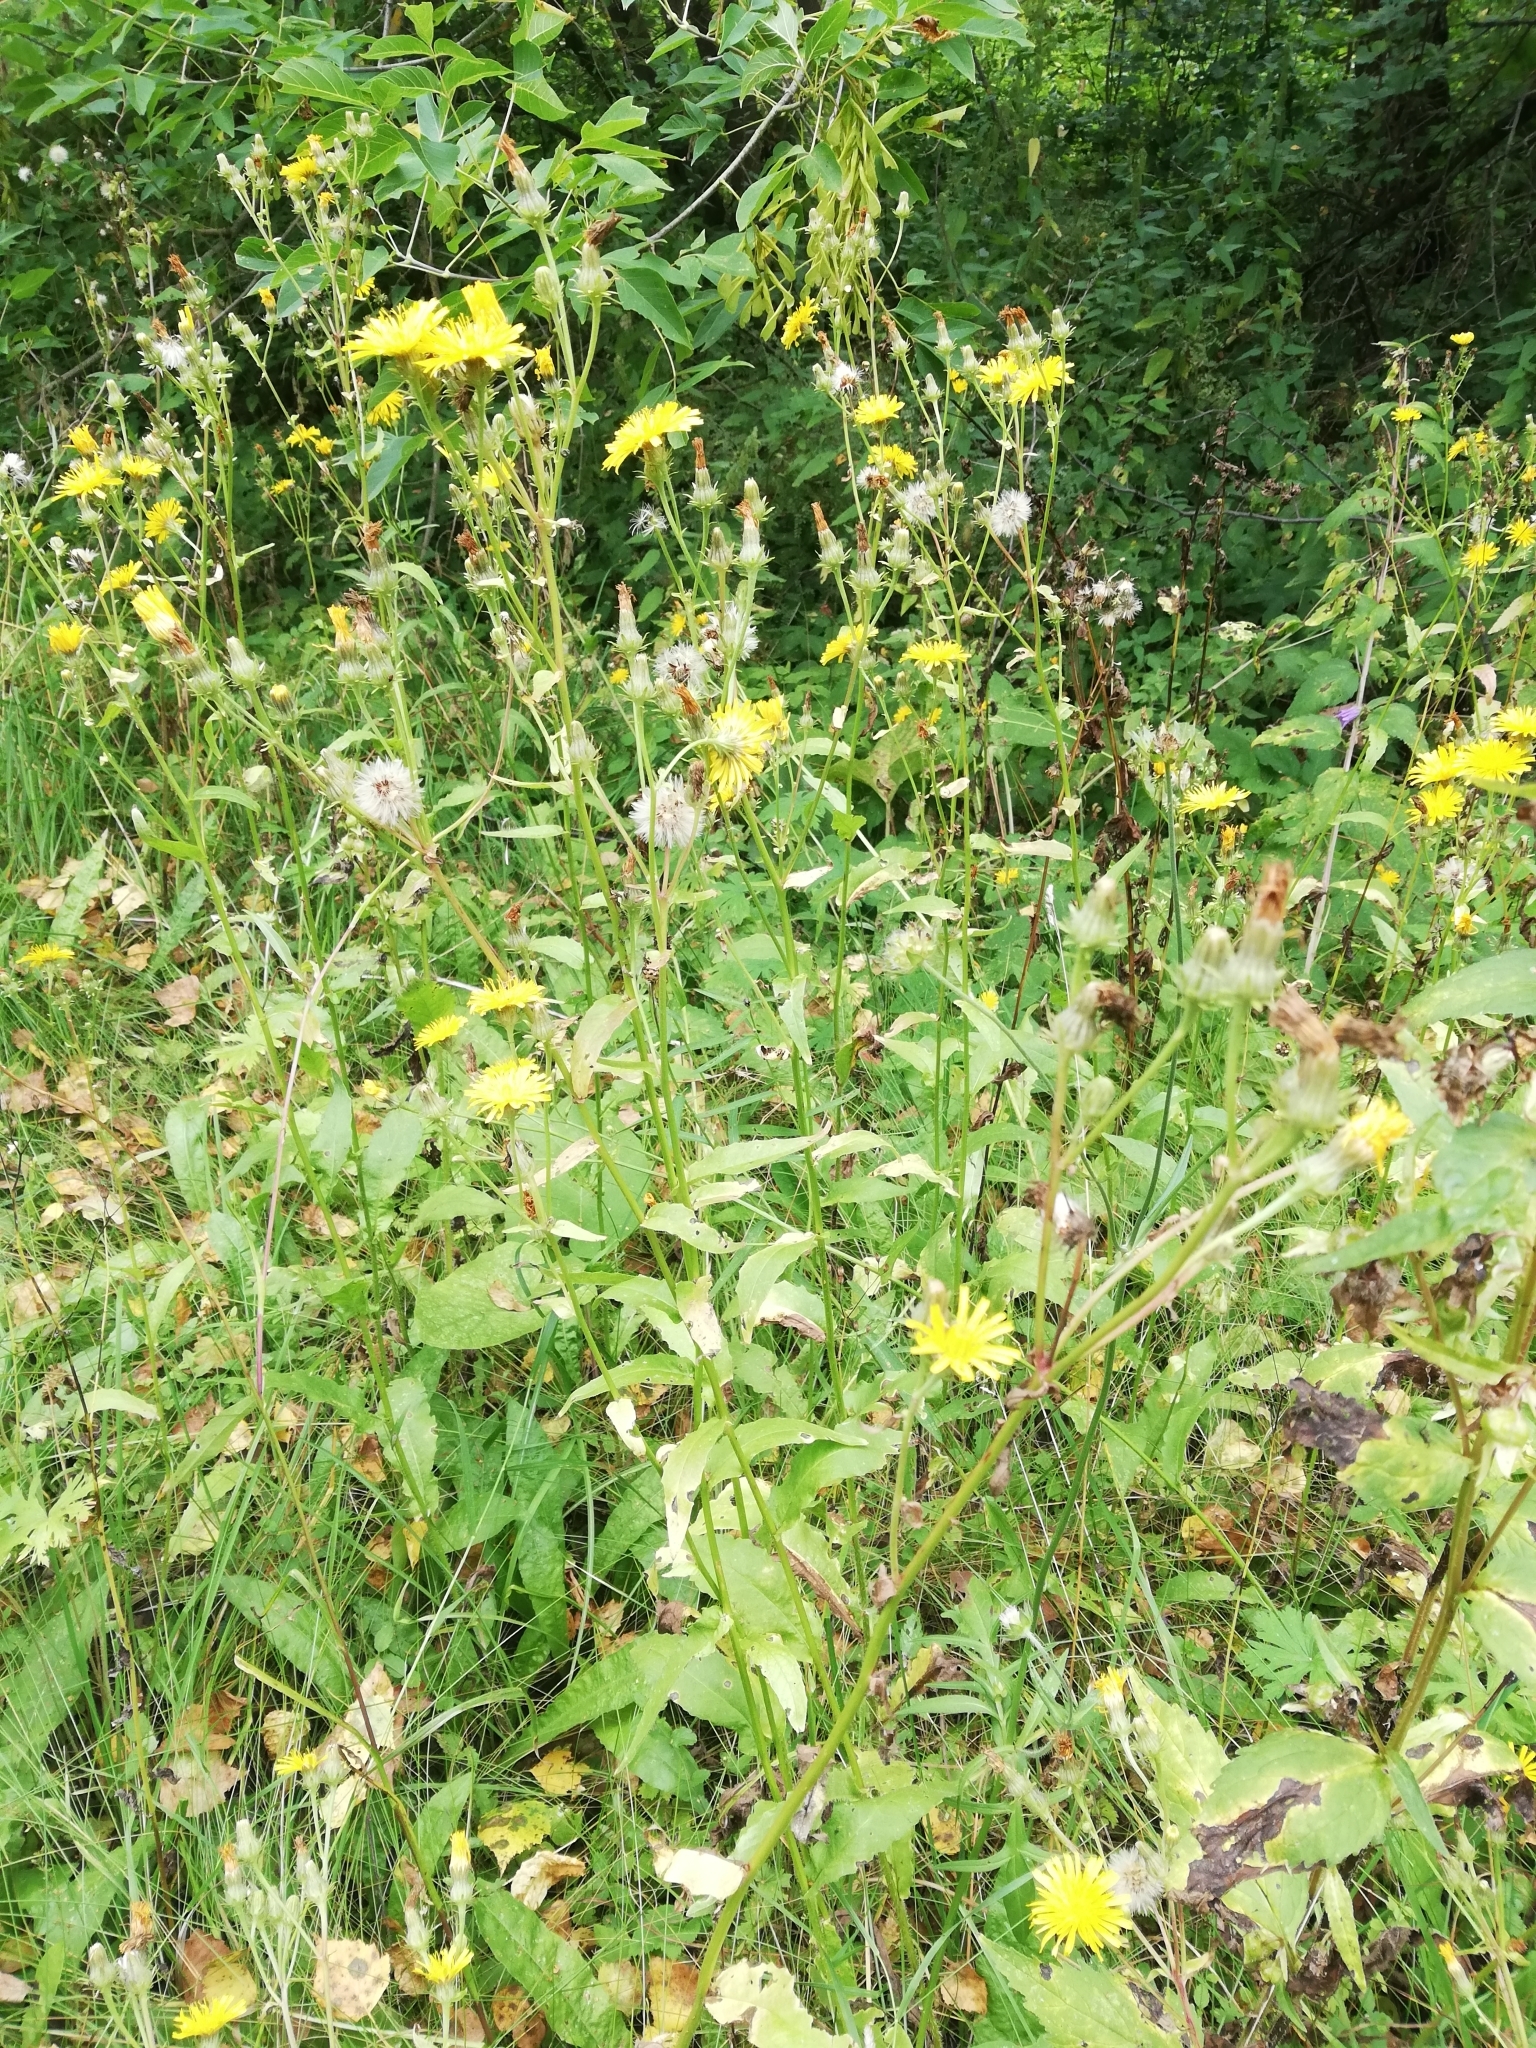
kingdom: Plantae
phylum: Tracheophyta
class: Magnoliopsida
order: Asterales
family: Asteraceae
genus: Picris
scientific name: Picris hieracioides
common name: Hawkweed oxtongue
